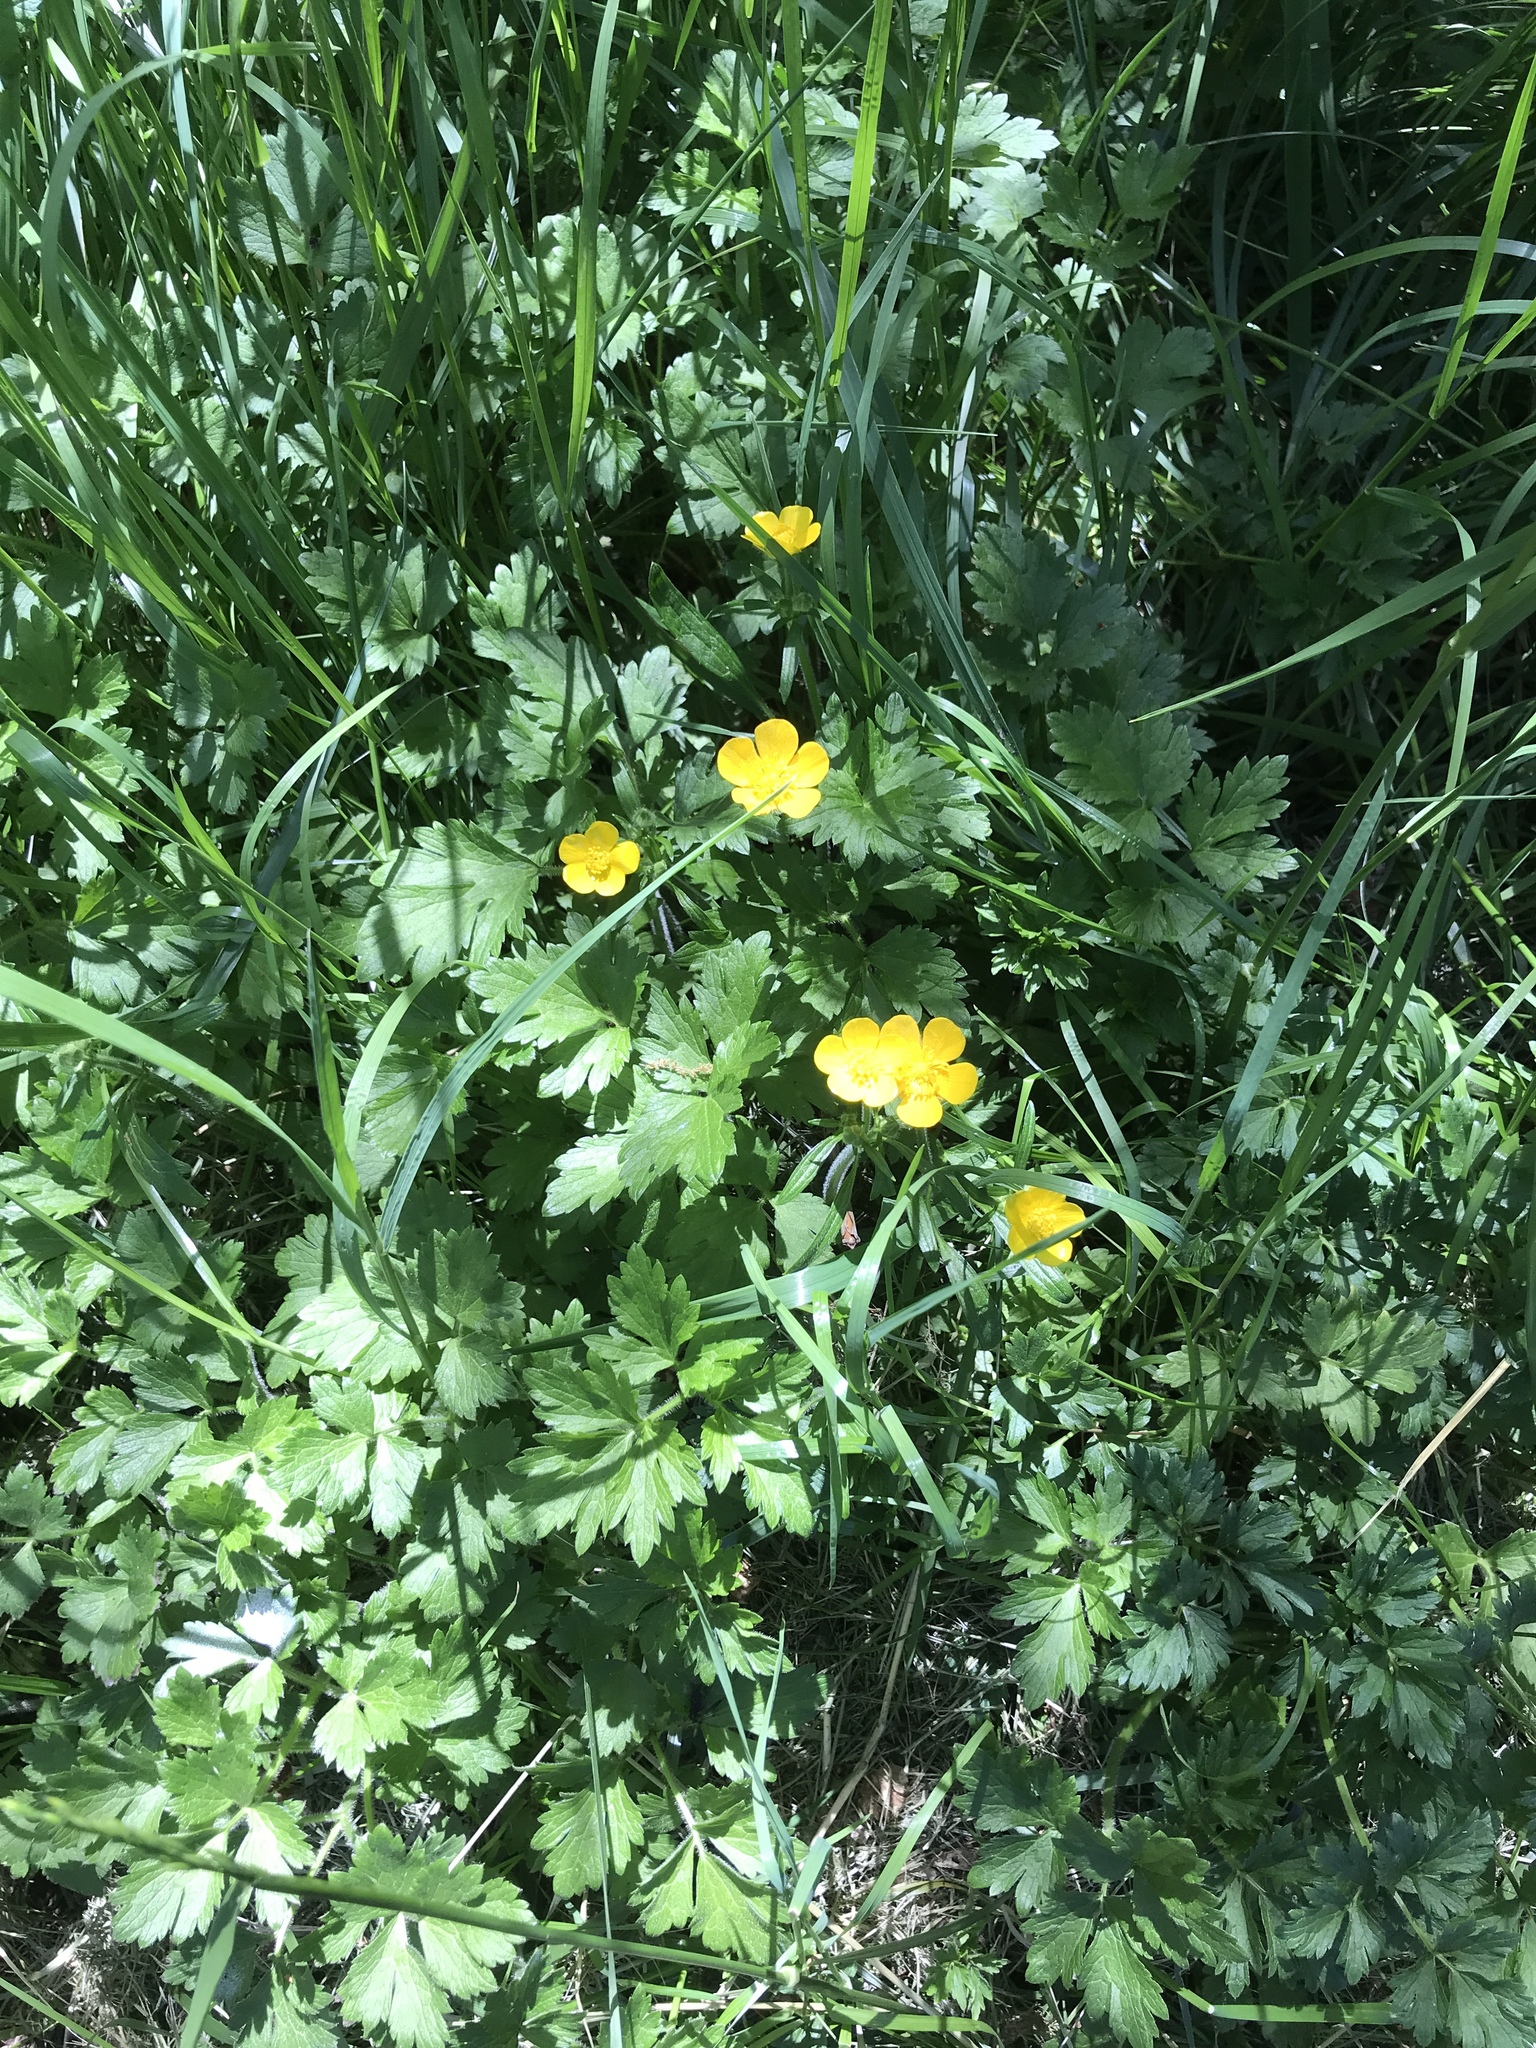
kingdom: Plantae
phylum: Tracheophyta
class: Magnoliopsida
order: Ranunculales
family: Ranunculaceae
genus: Ranunculus
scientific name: Ranunculus repens
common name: Creeping buttercup
